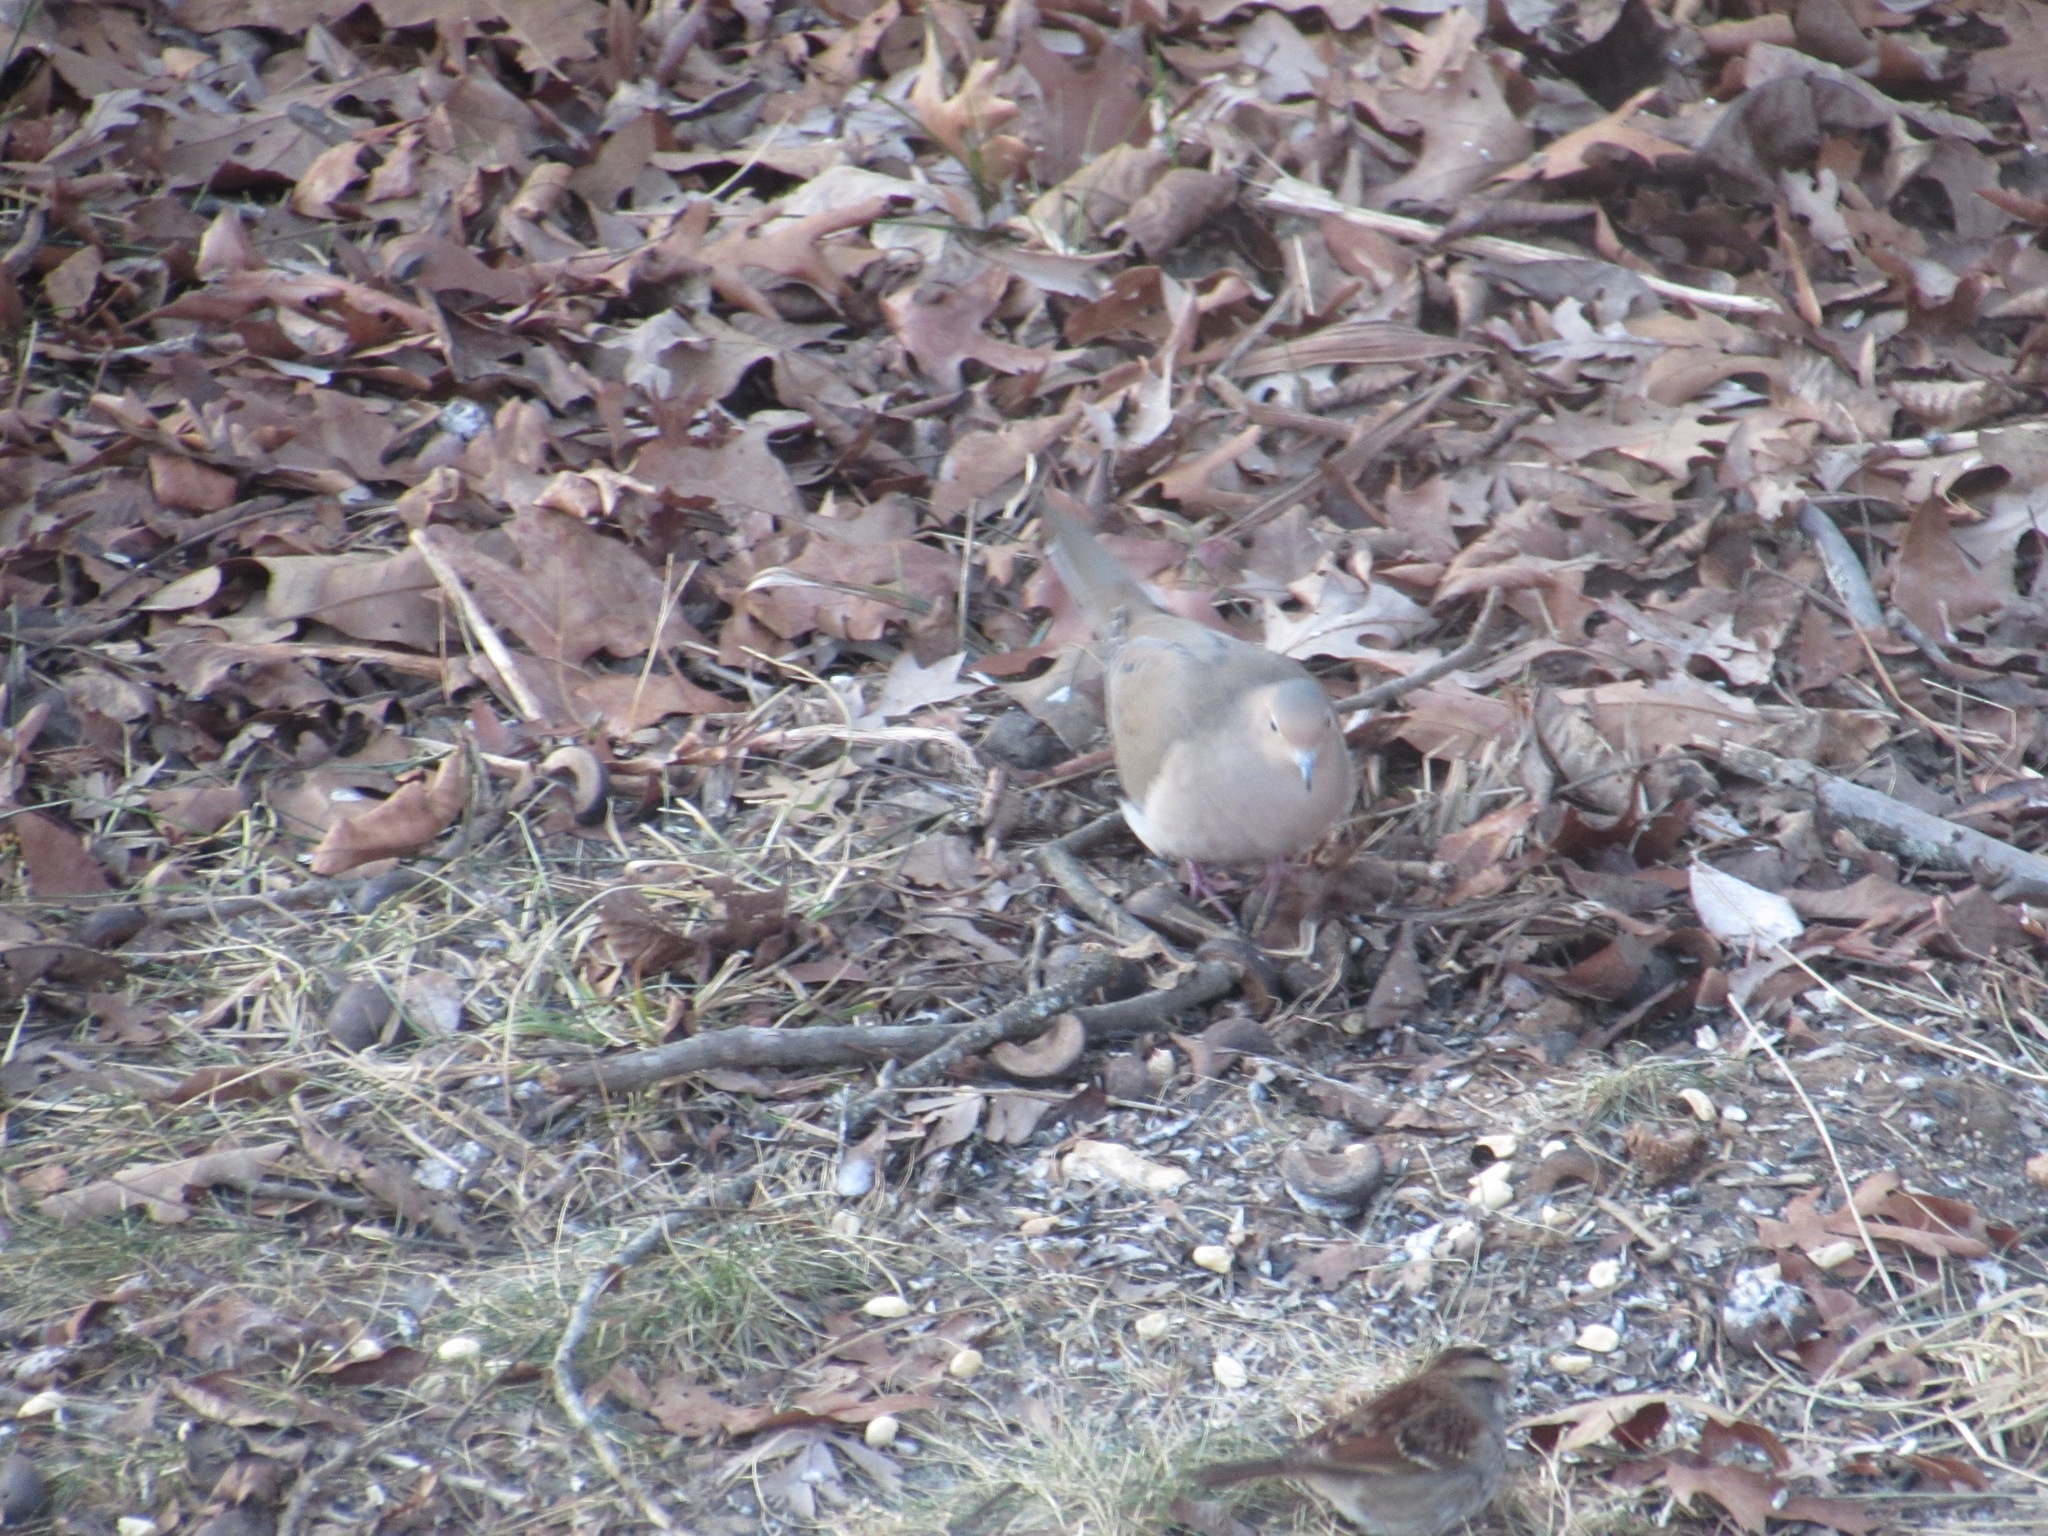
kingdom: Animalia
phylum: Chordata
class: Aves
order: Columbiformes
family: Columbidae
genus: Zenaida
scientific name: Zenaida macroura
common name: Mourning dove
